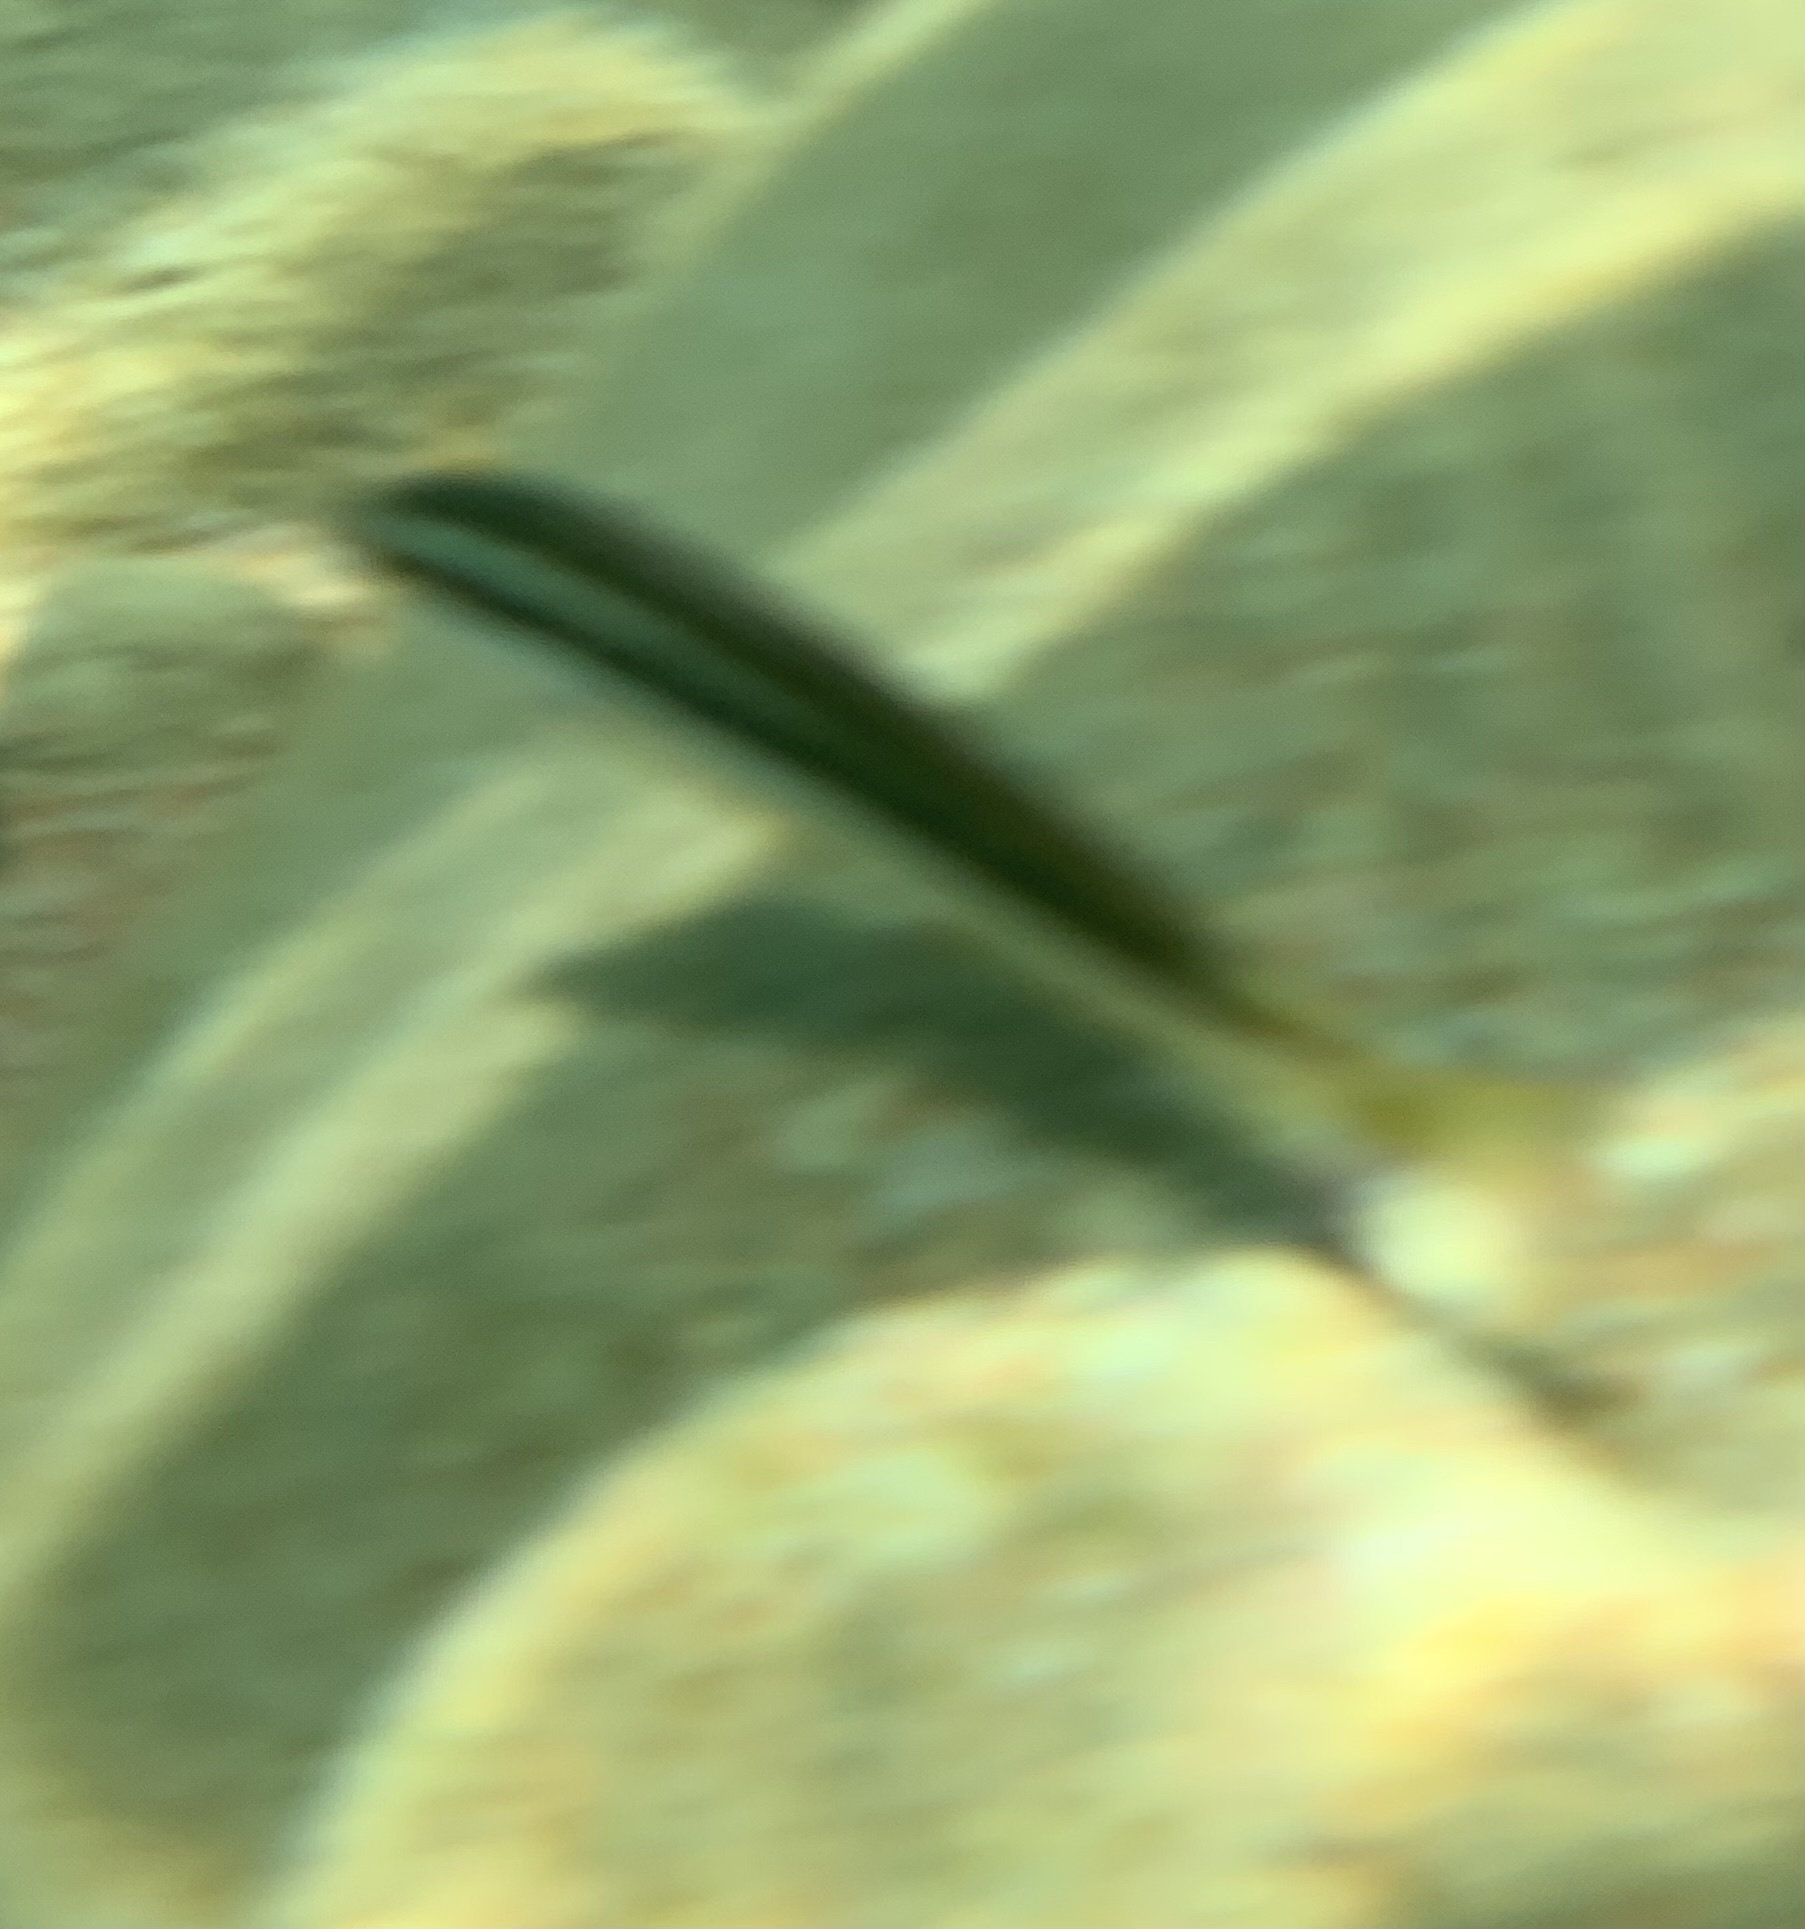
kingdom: Animalia
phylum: Chordata
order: Perciformes
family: Labridae
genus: Coris
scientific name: Coris julis
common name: Rainbow wrasse
